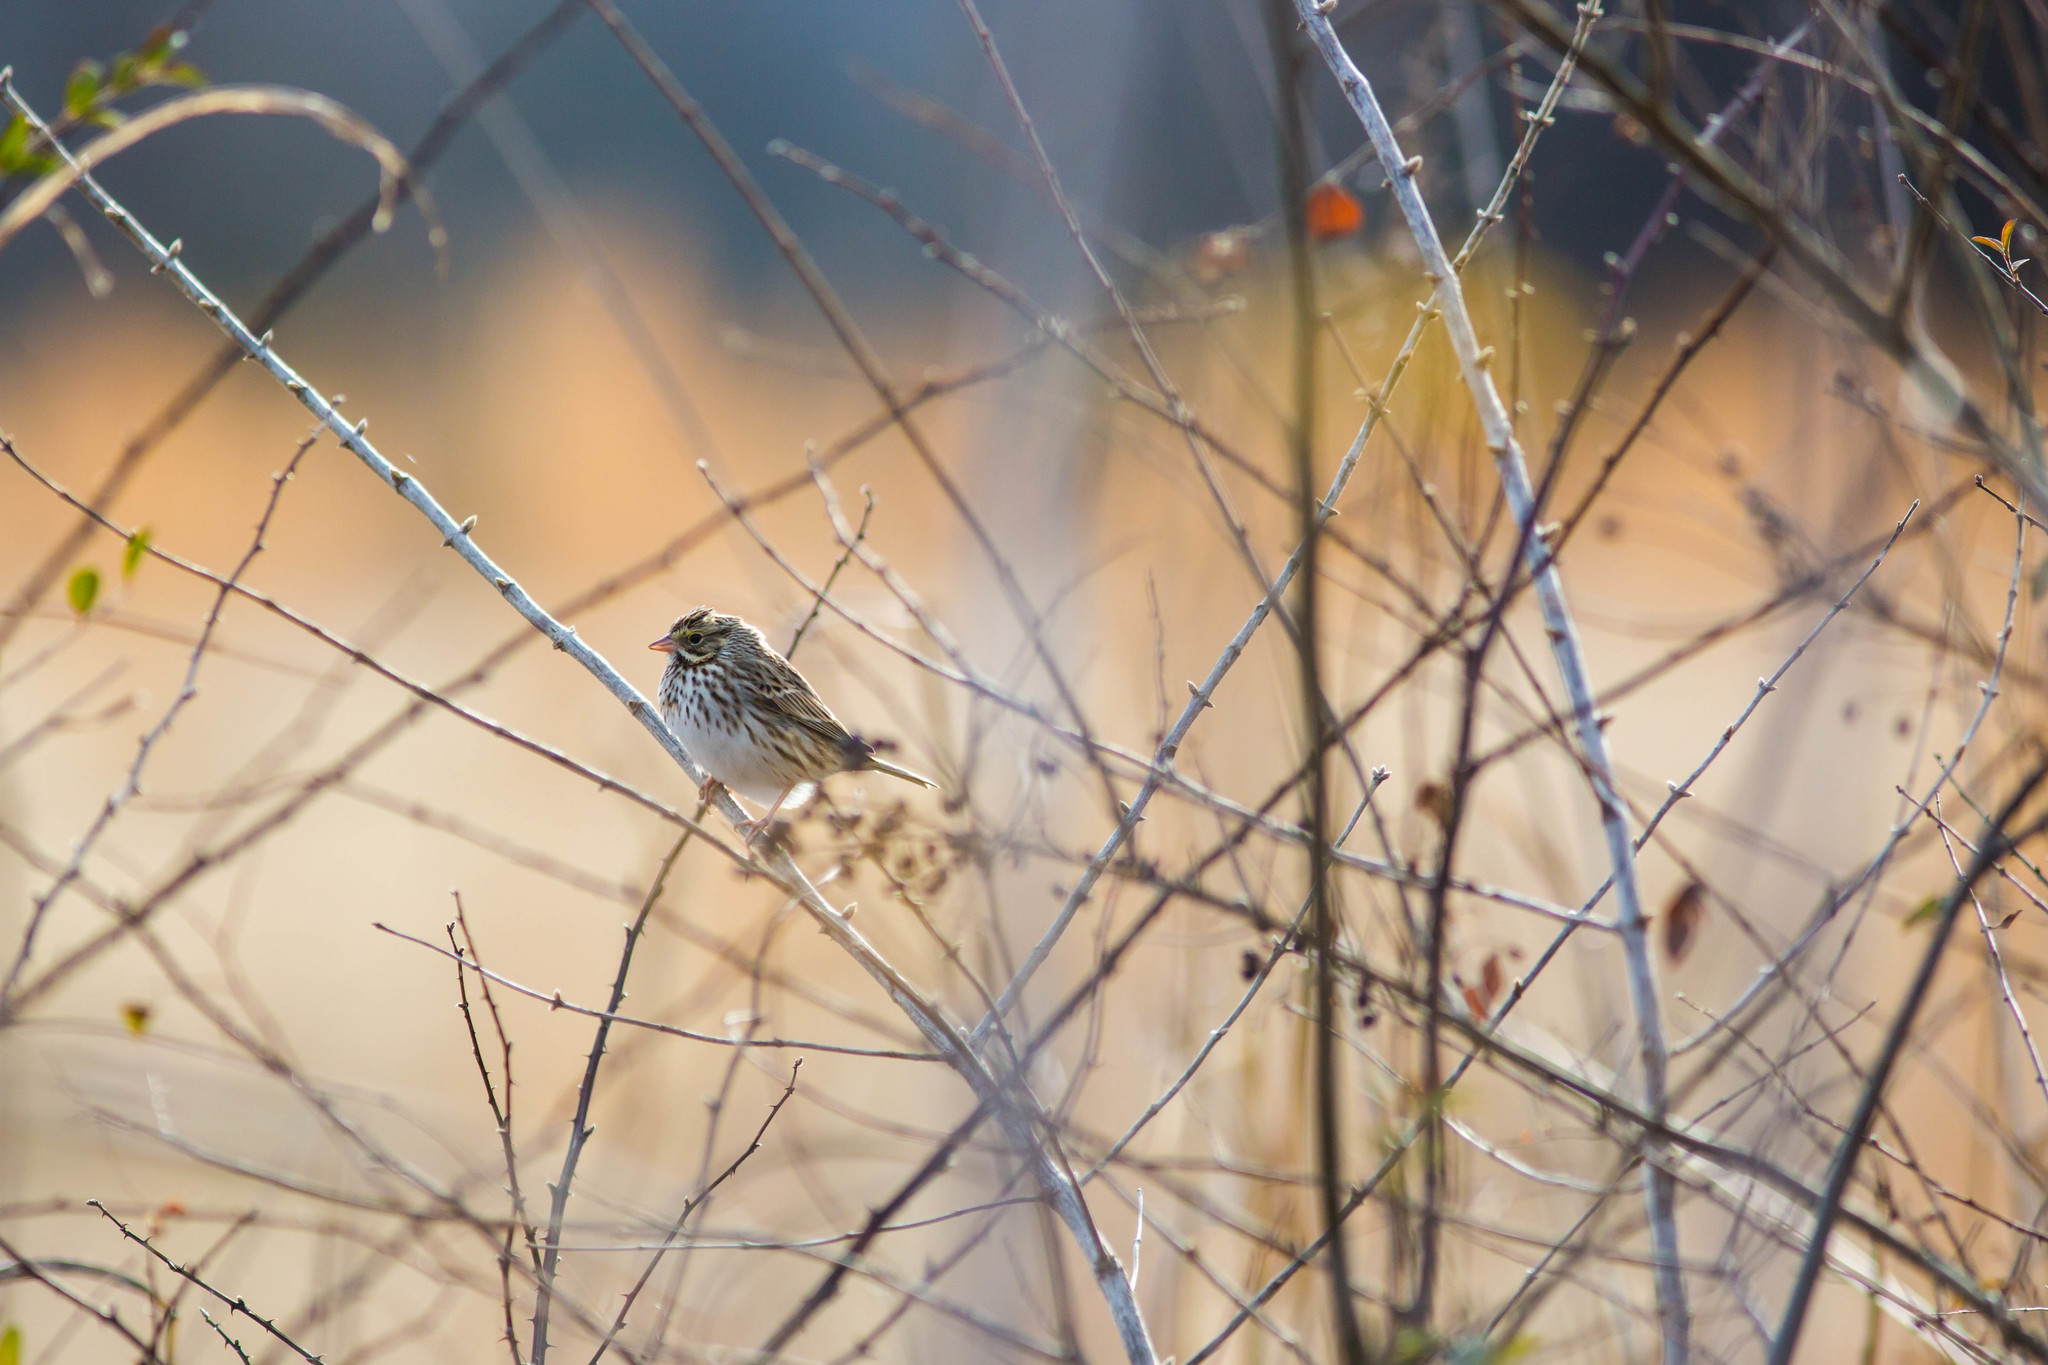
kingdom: Animalia
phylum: Chordata
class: Aves
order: Passeriformes
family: Passerellidae
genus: Passerculus
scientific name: Passerculus sandwichensis
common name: Savannah sparrow
